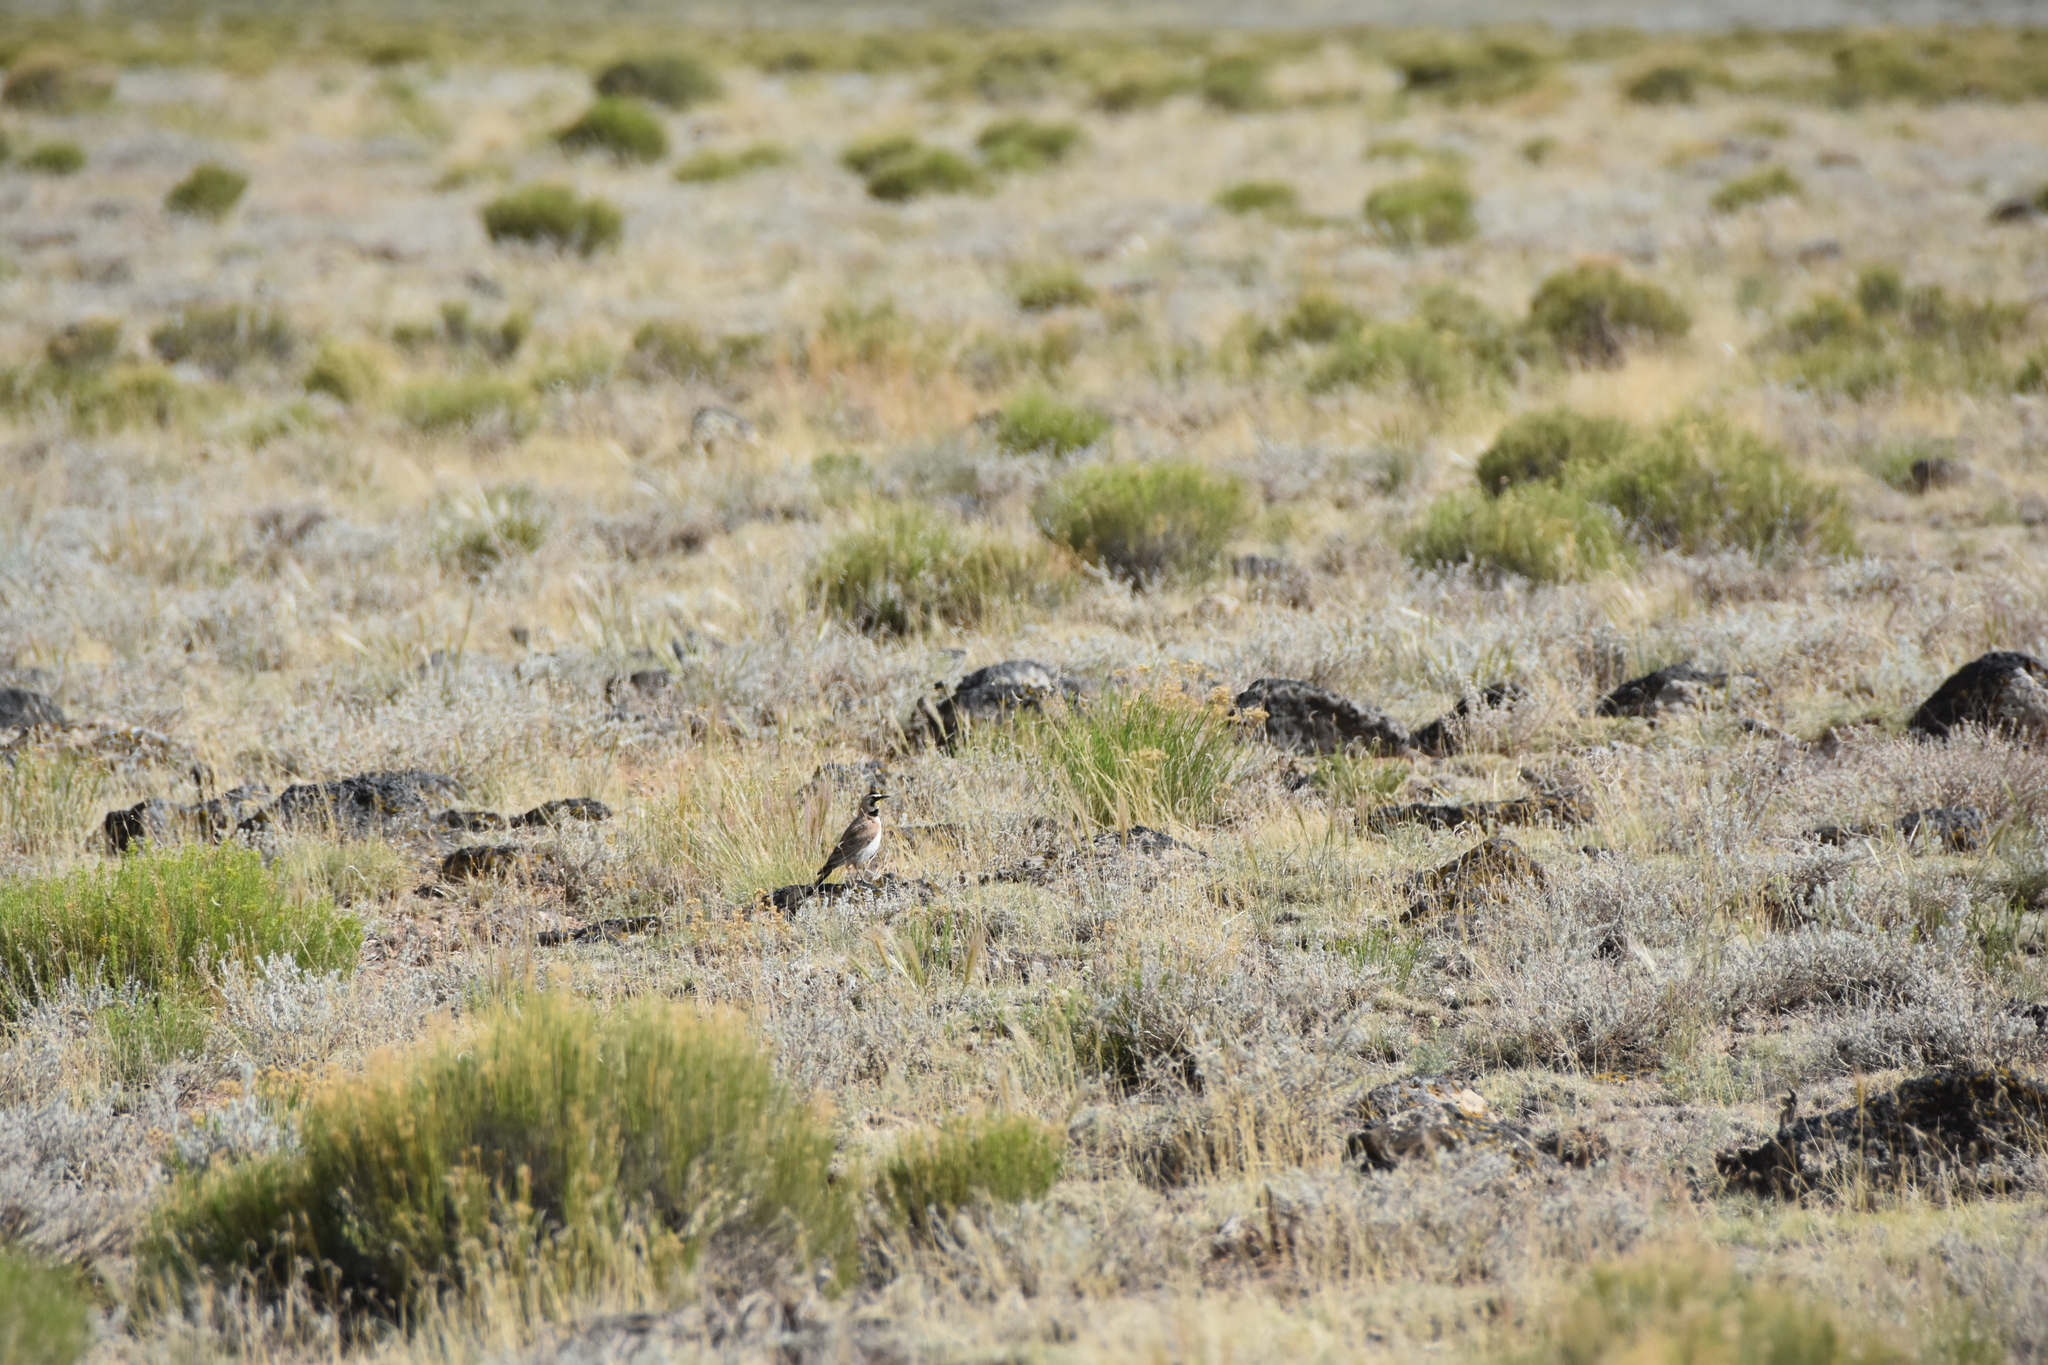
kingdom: Animalia
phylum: Chordata
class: Aves
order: Passeriformes
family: Alaudidae
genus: Eremophila
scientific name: Eremophila alpestris
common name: Horned lark
